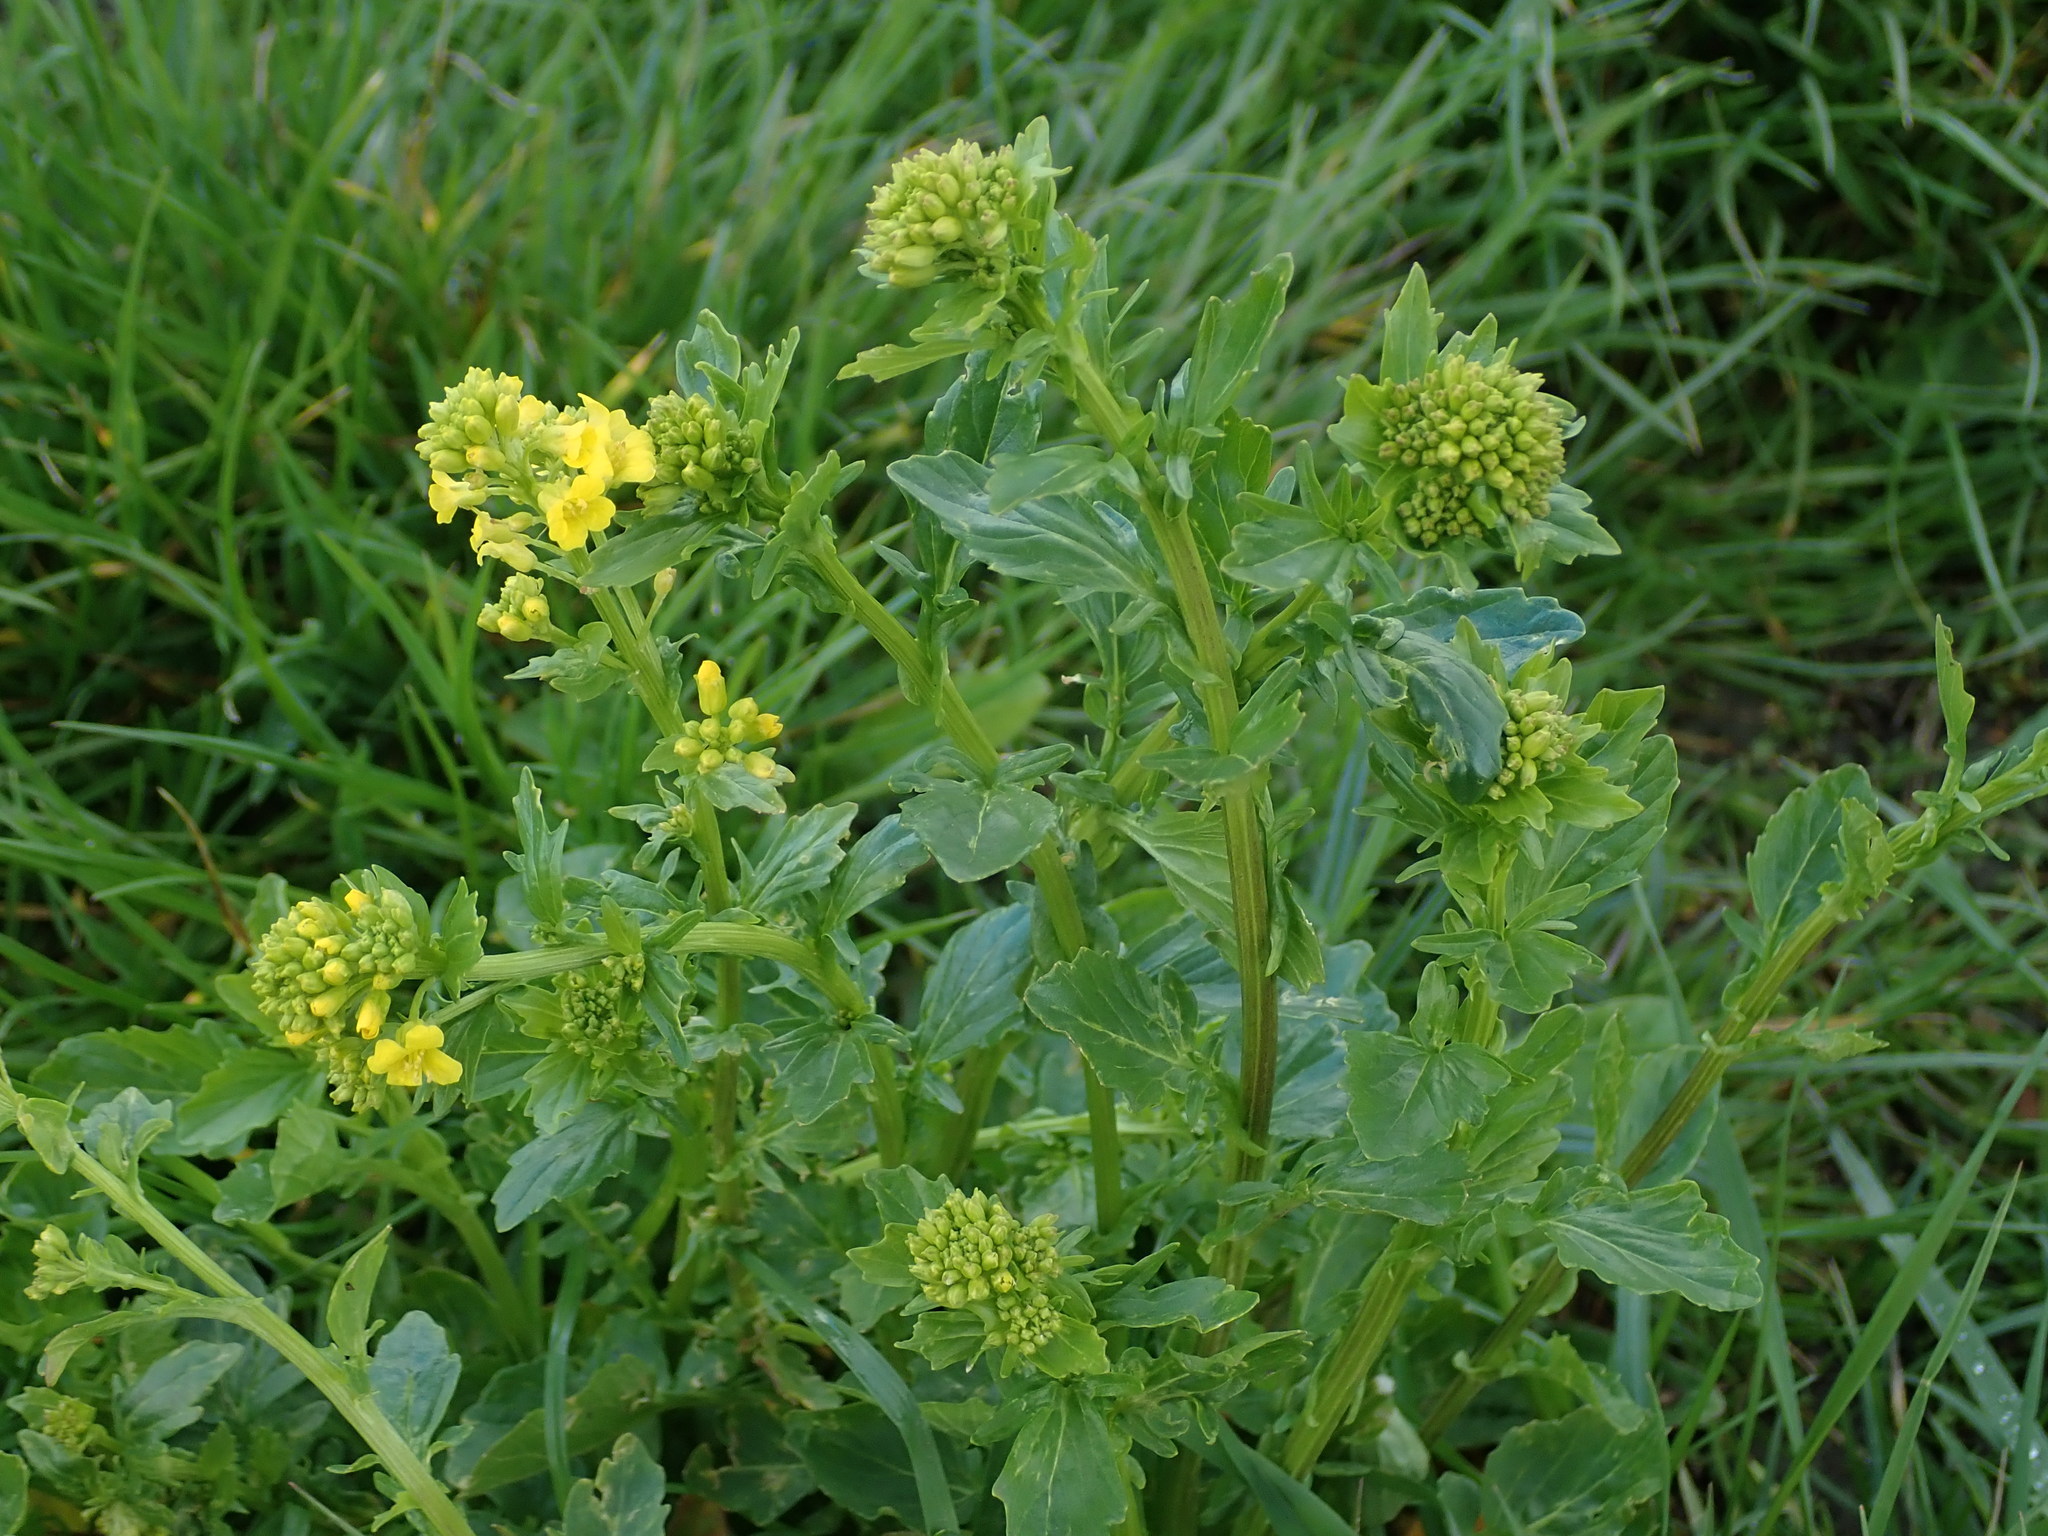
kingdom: Plantae
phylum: Tracheophyta
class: Magnoliopsida
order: Brassicales
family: Brassicaceae
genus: Barbarea
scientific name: Barbarea vulgaris
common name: Cressy-greens
